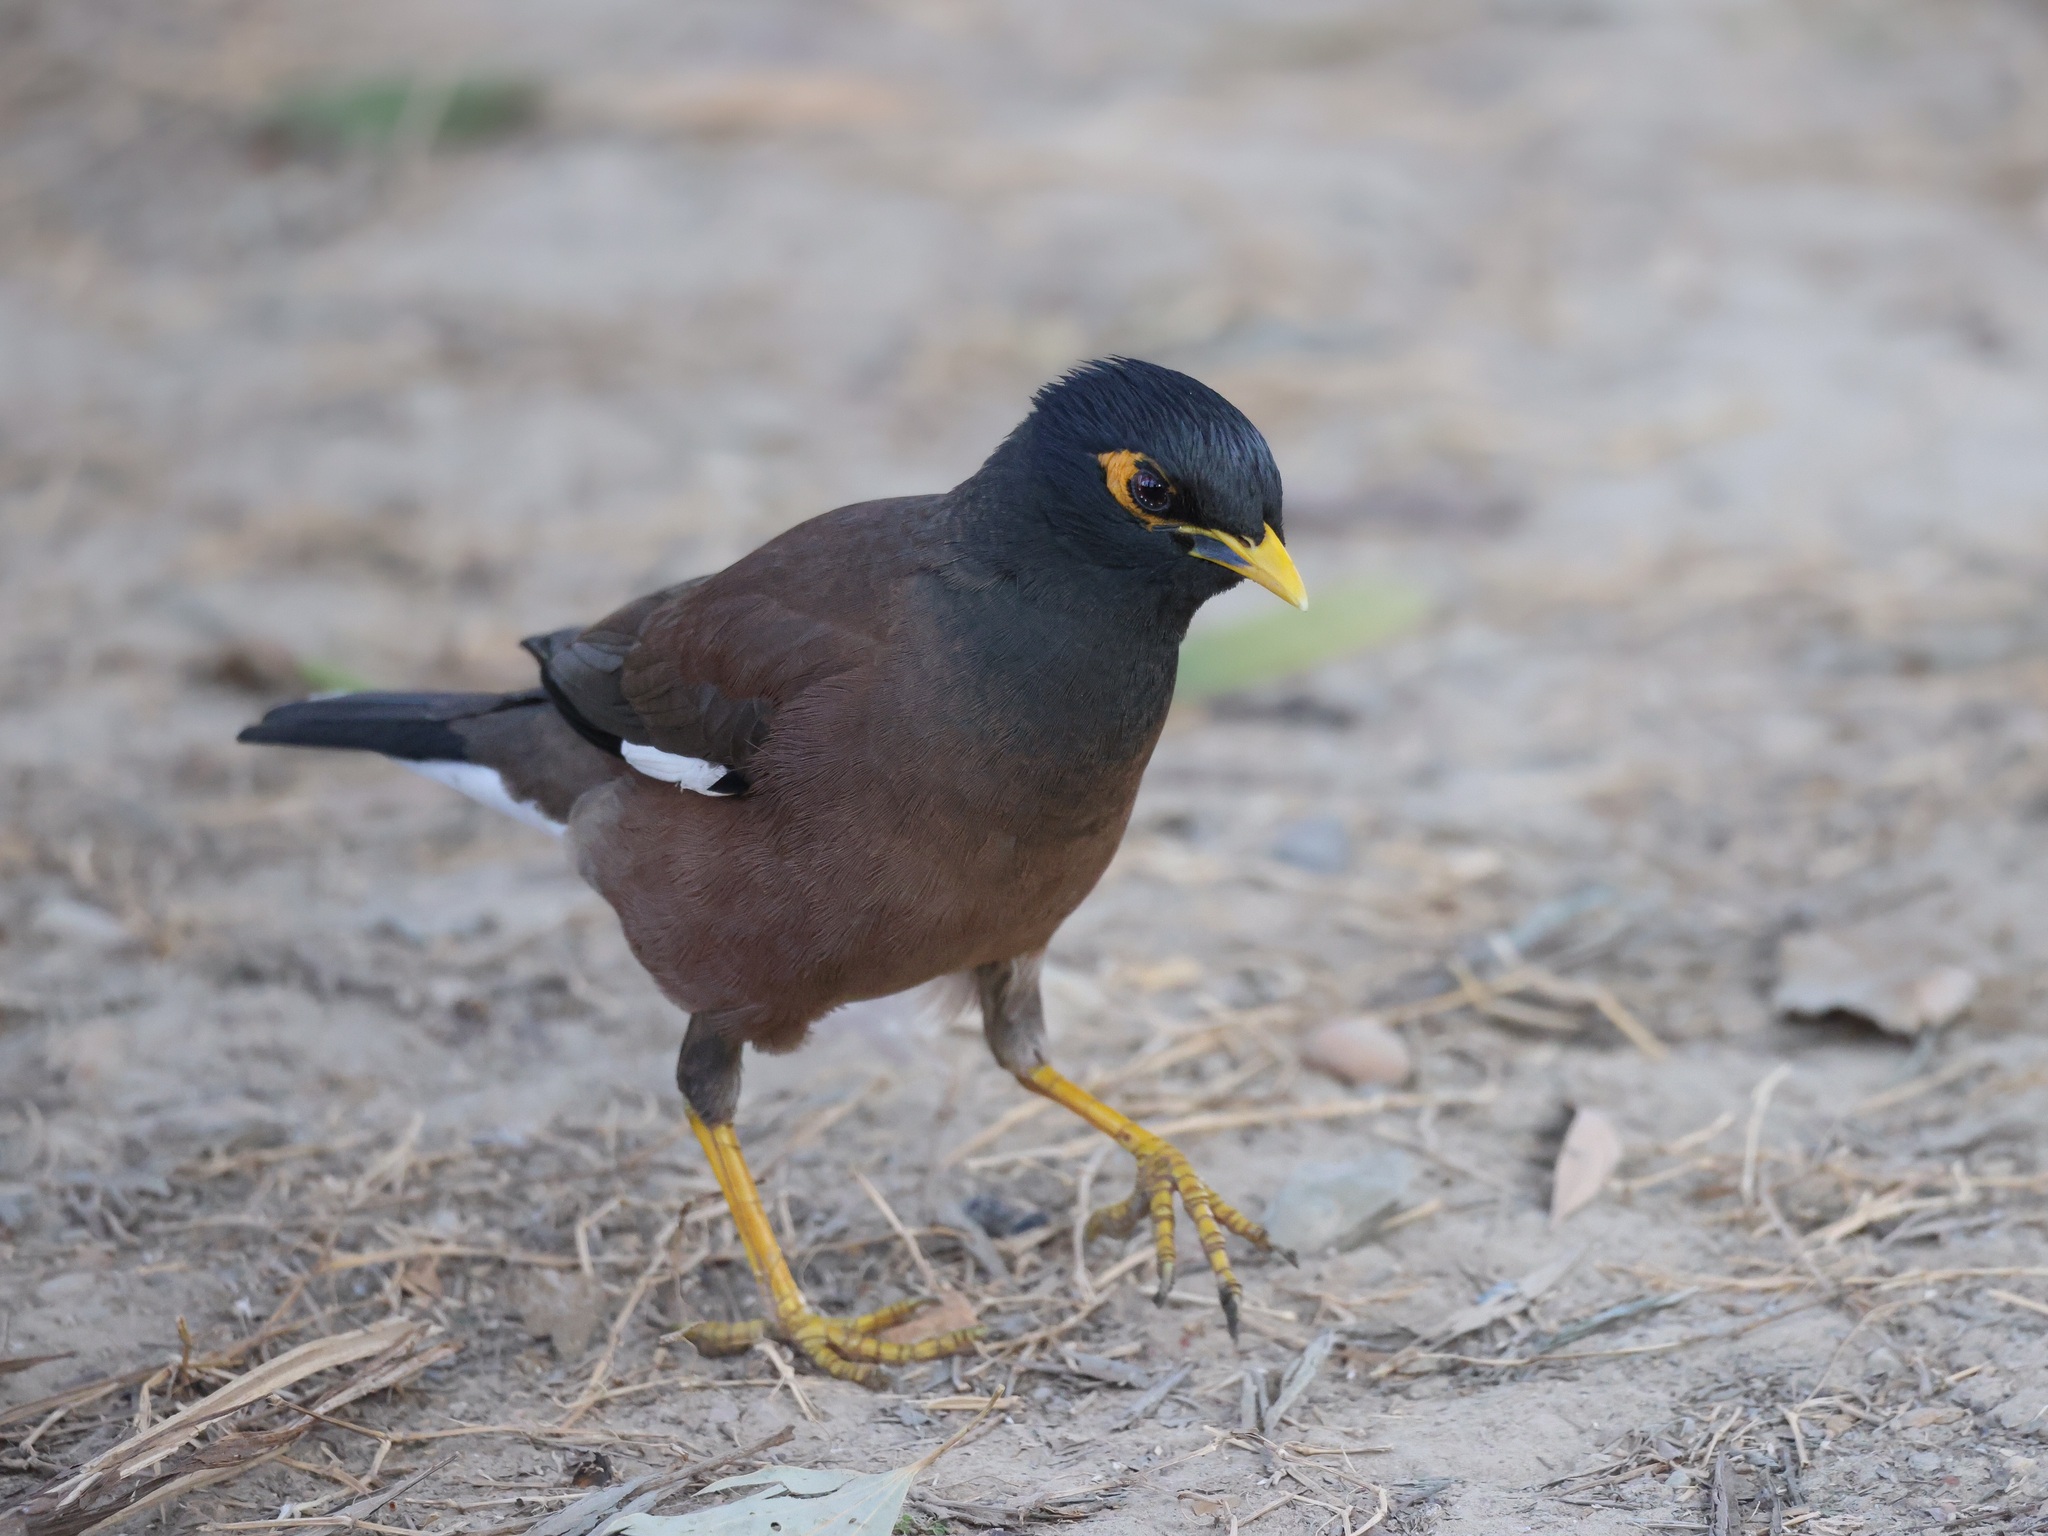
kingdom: Animalia
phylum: Chordata
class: Aves
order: Passeriformes
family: Sturnidae
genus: Acridotheres
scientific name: Acridotheres tristis
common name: Common myna
